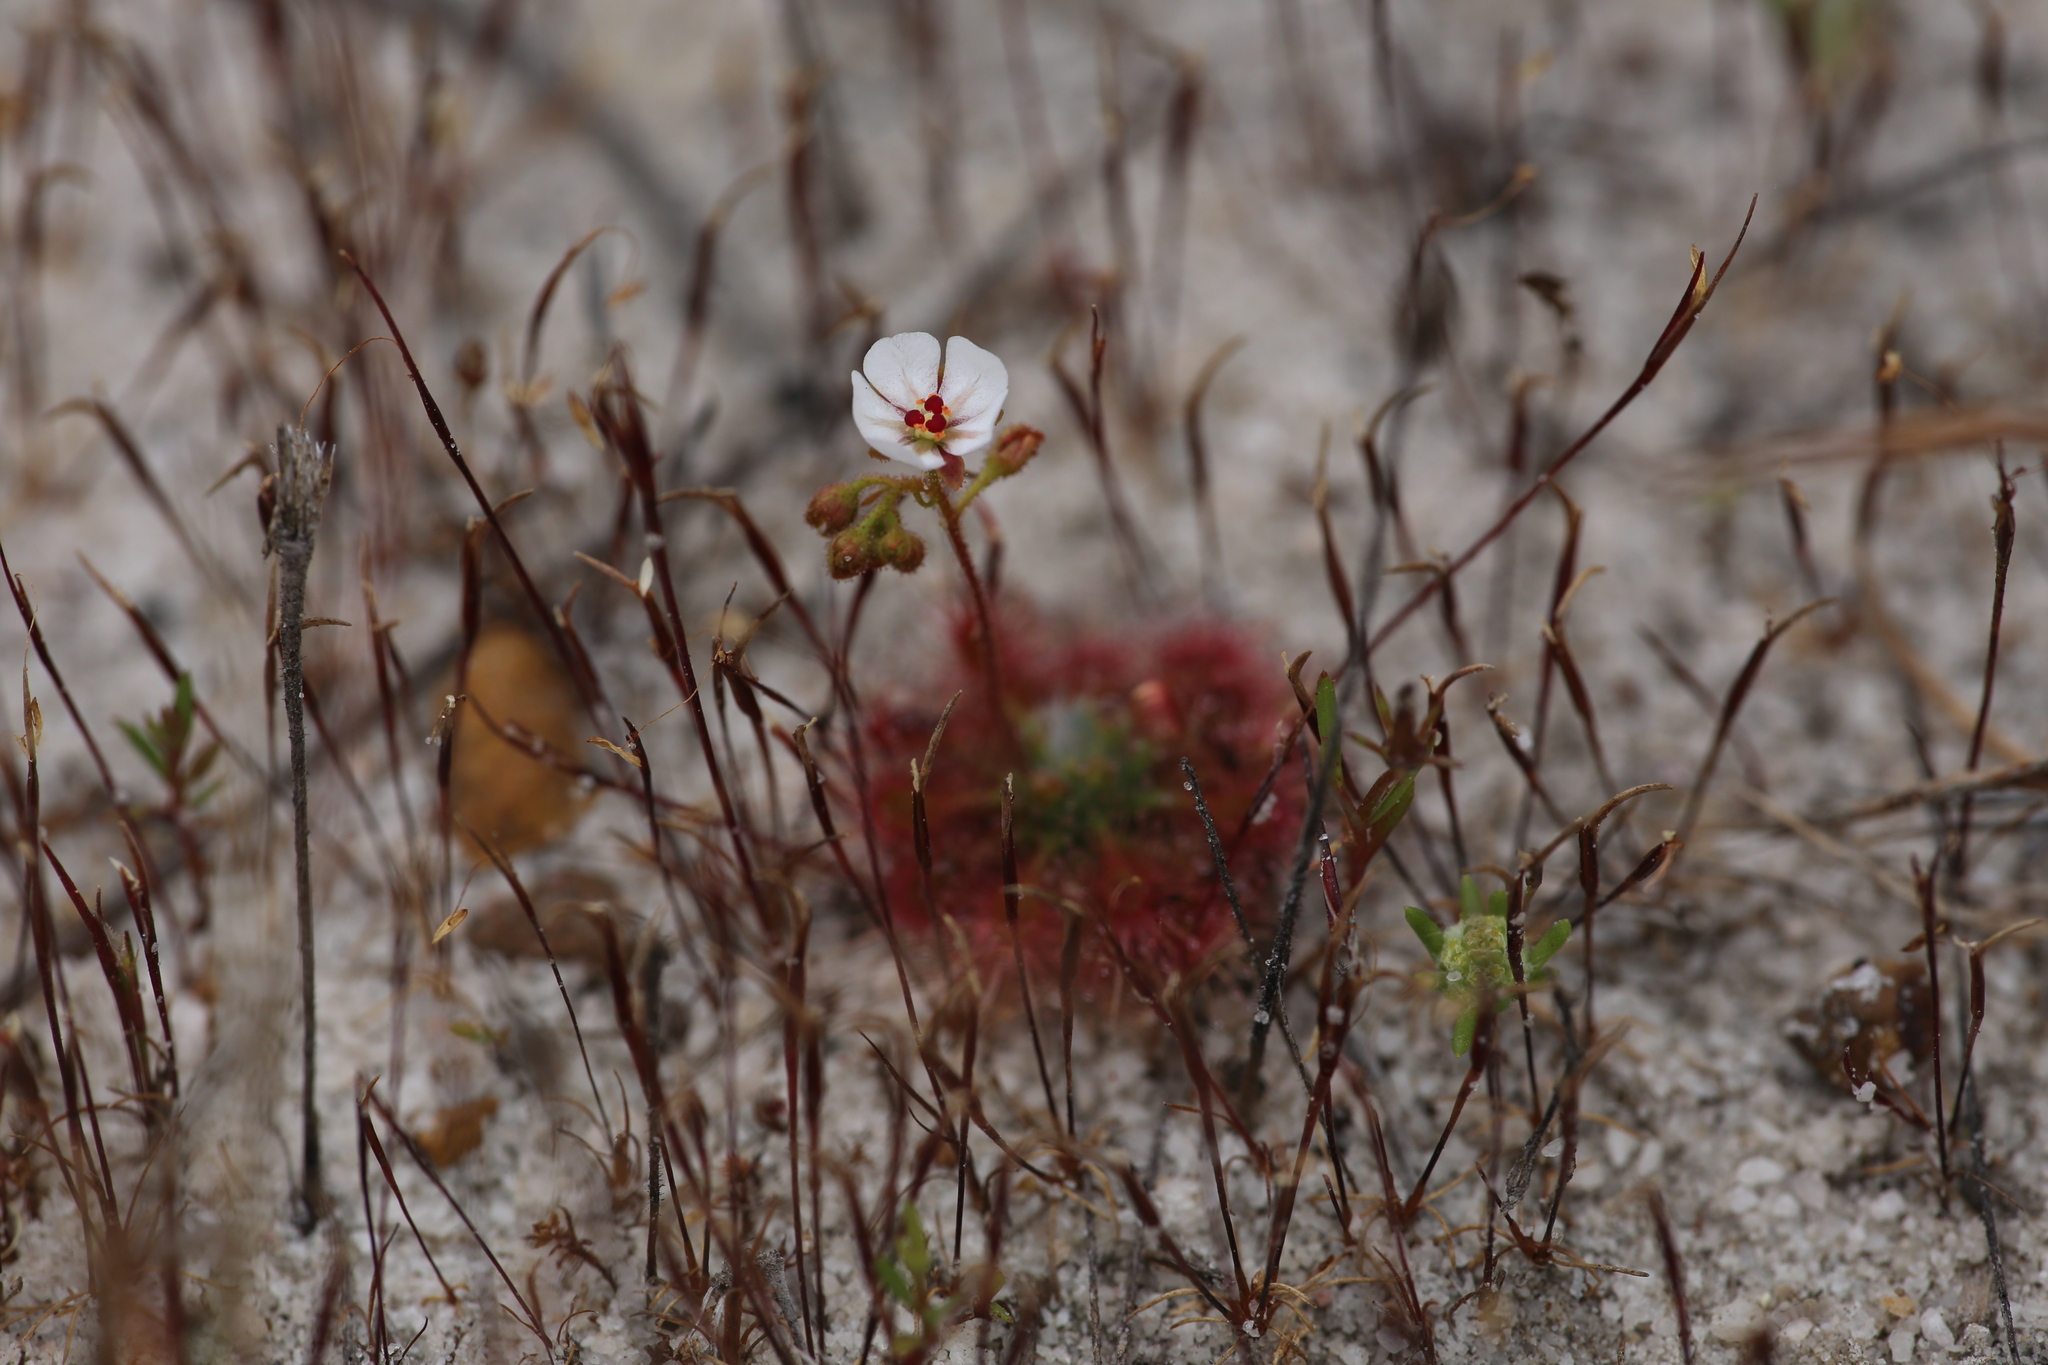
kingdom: Plantae
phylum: Tracheophyta
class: Magnoliopsida
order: Caryophyllales
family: Droseraceae
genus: Drosera
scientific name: Drosera nitidula
